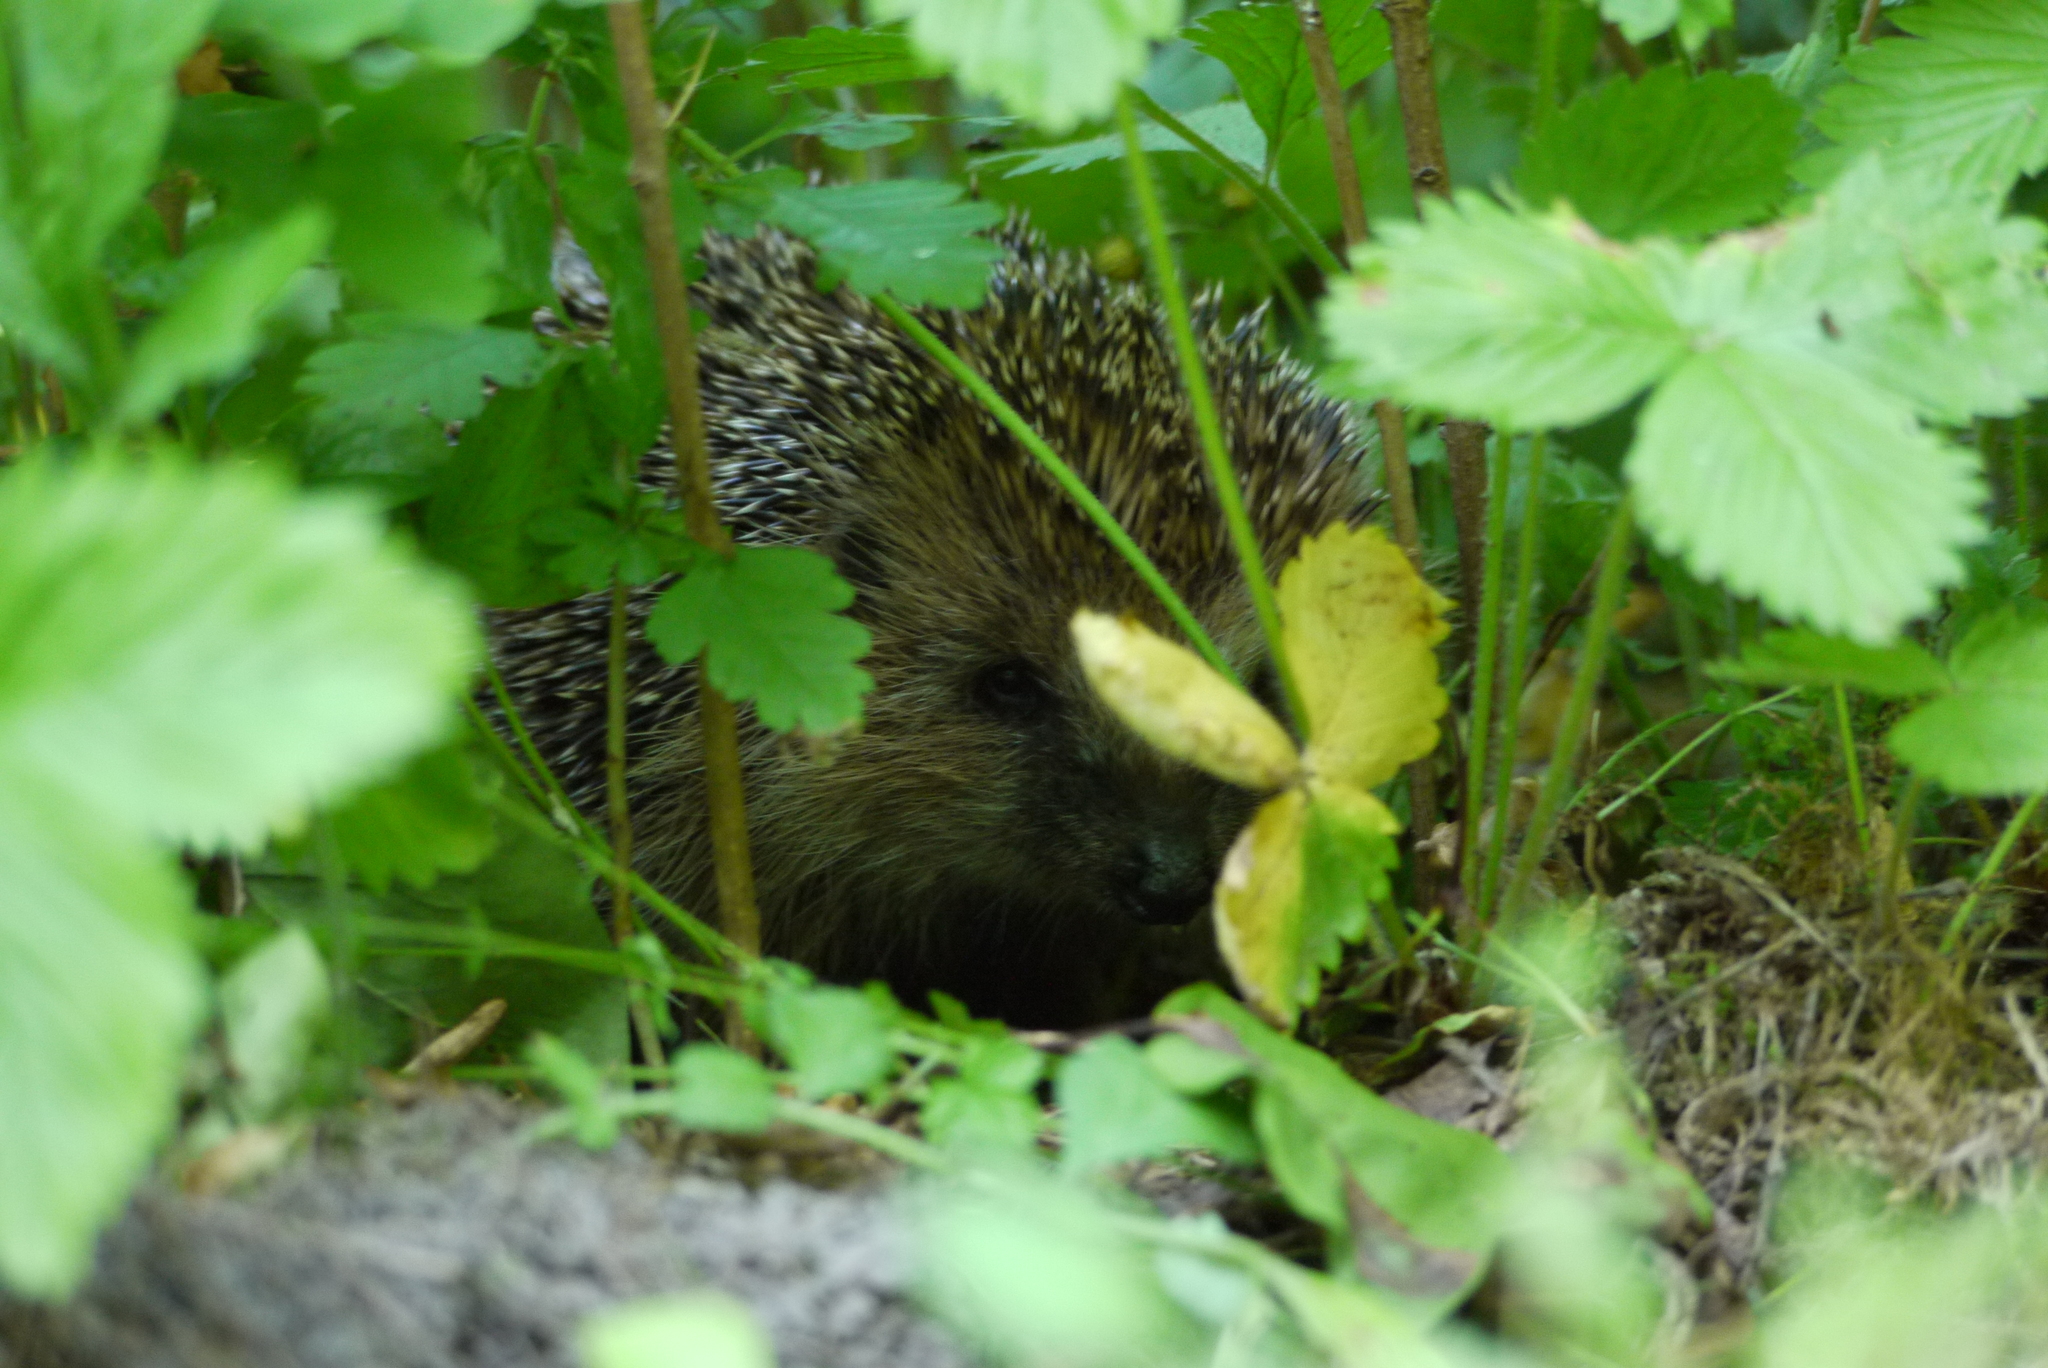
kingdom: Animalia
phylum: Chordata
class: Mammalia
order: Erinaceomorpha
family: Erinaceidae
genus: Erinaceus
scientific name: Erinaceus europaeus
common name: West european hedgehog
